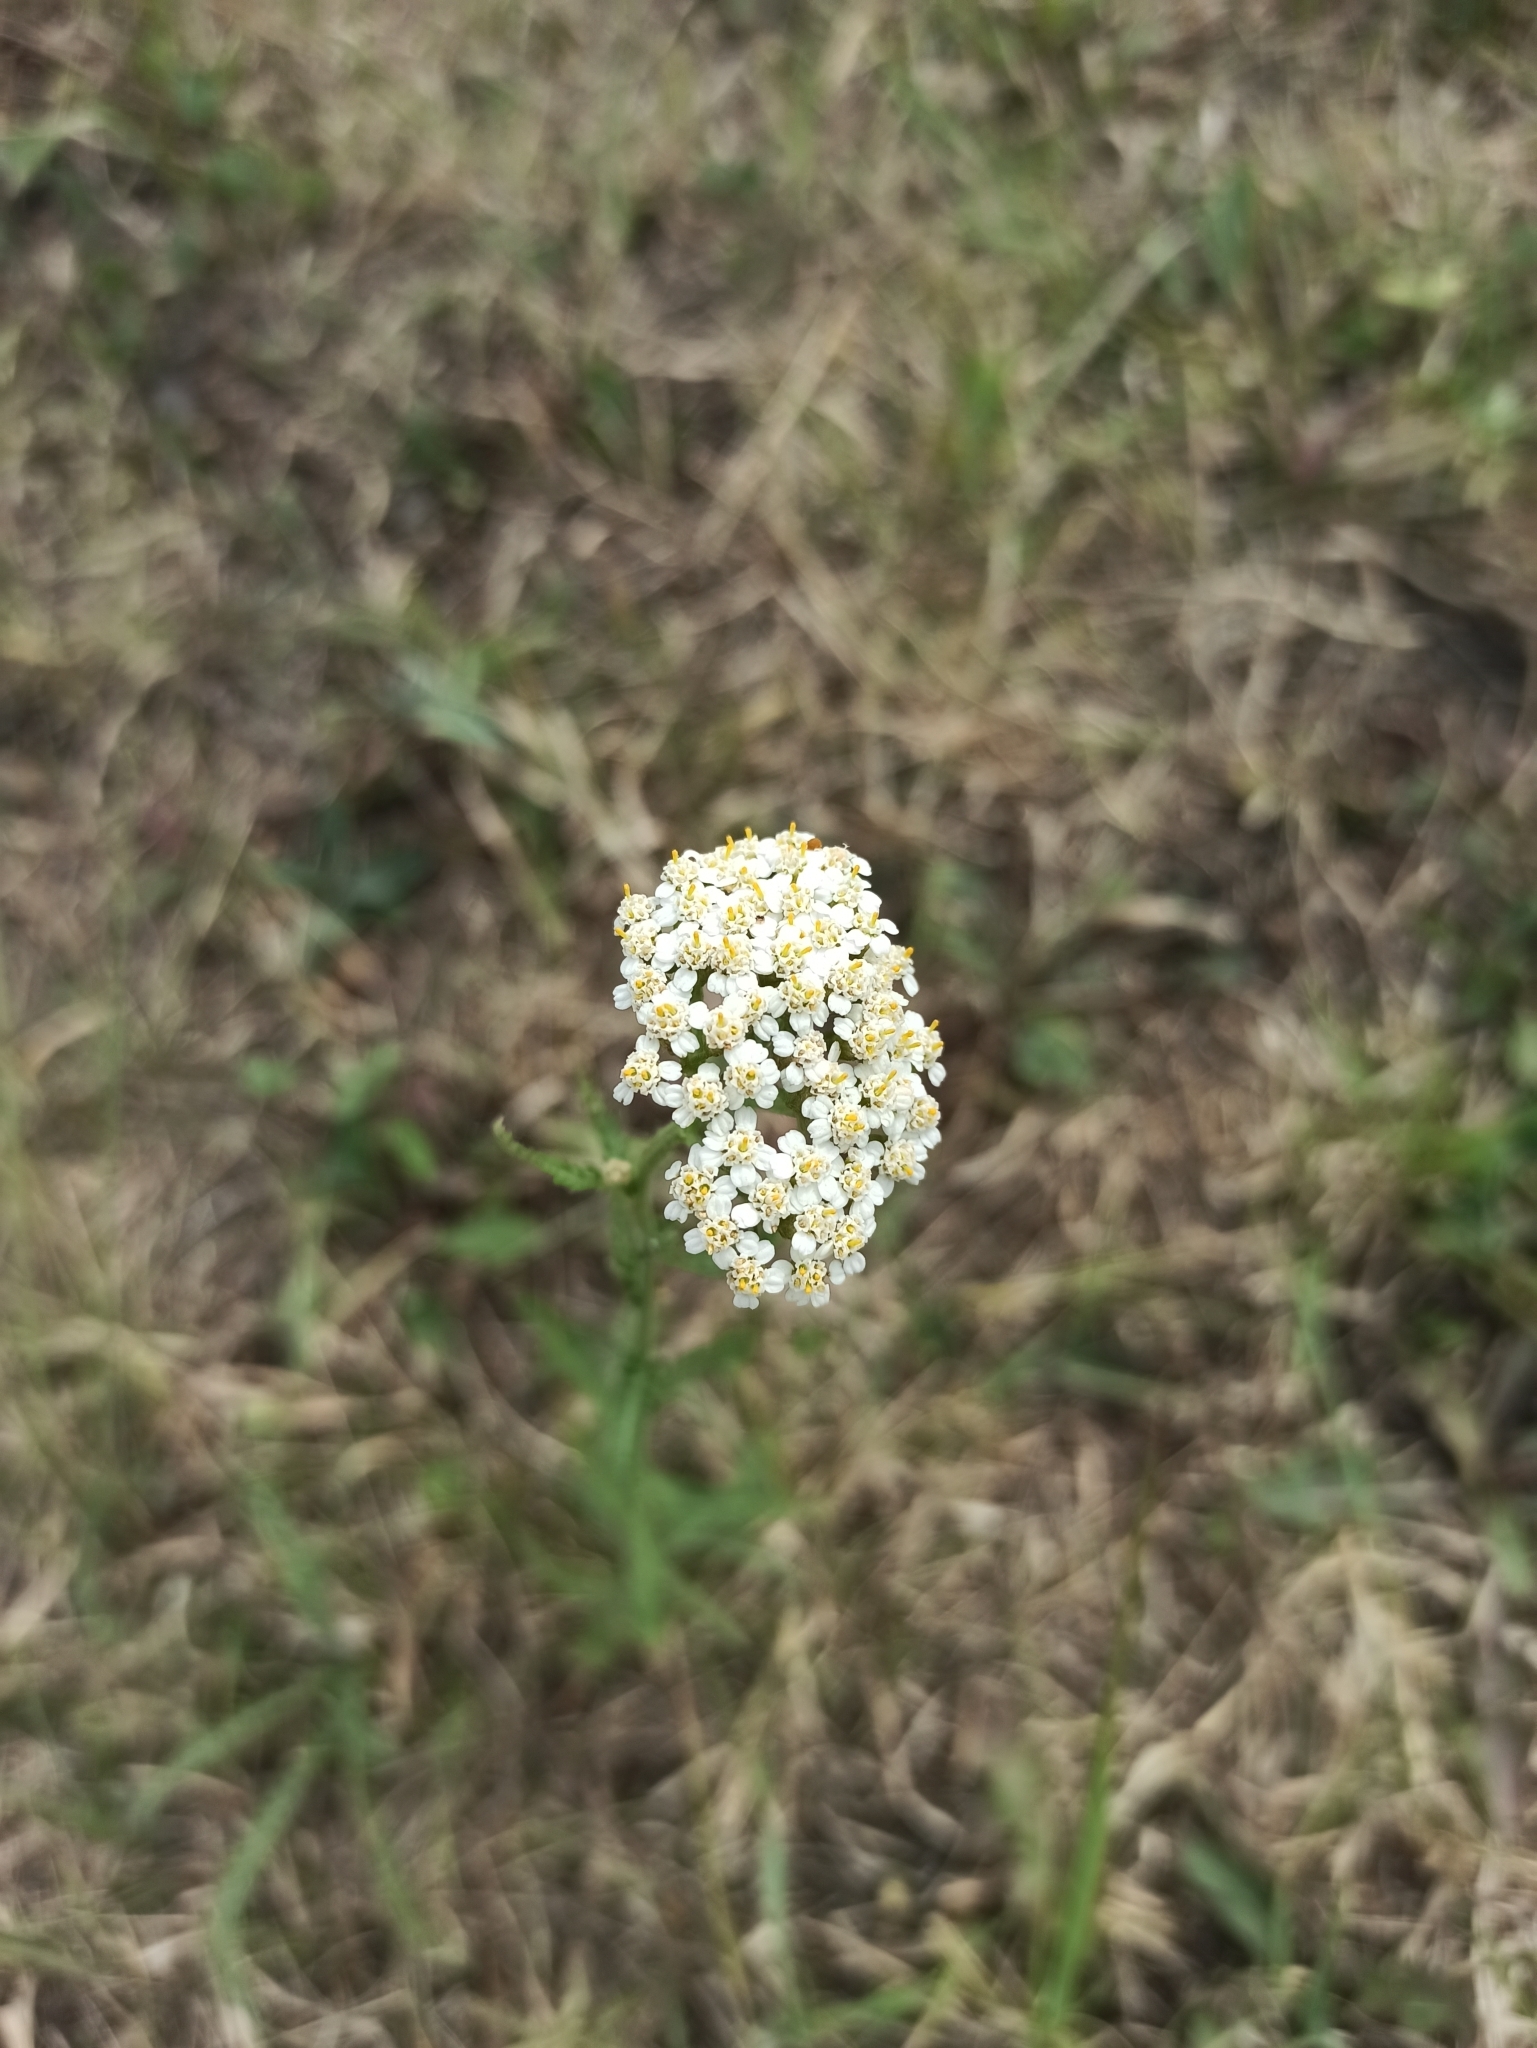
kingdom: Plantae
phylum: Tracheophyta
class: Magnoliopsida
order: Asterales
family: Asteraceae
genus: Achillea
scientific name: Achillea millefolium
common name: Yarrow
